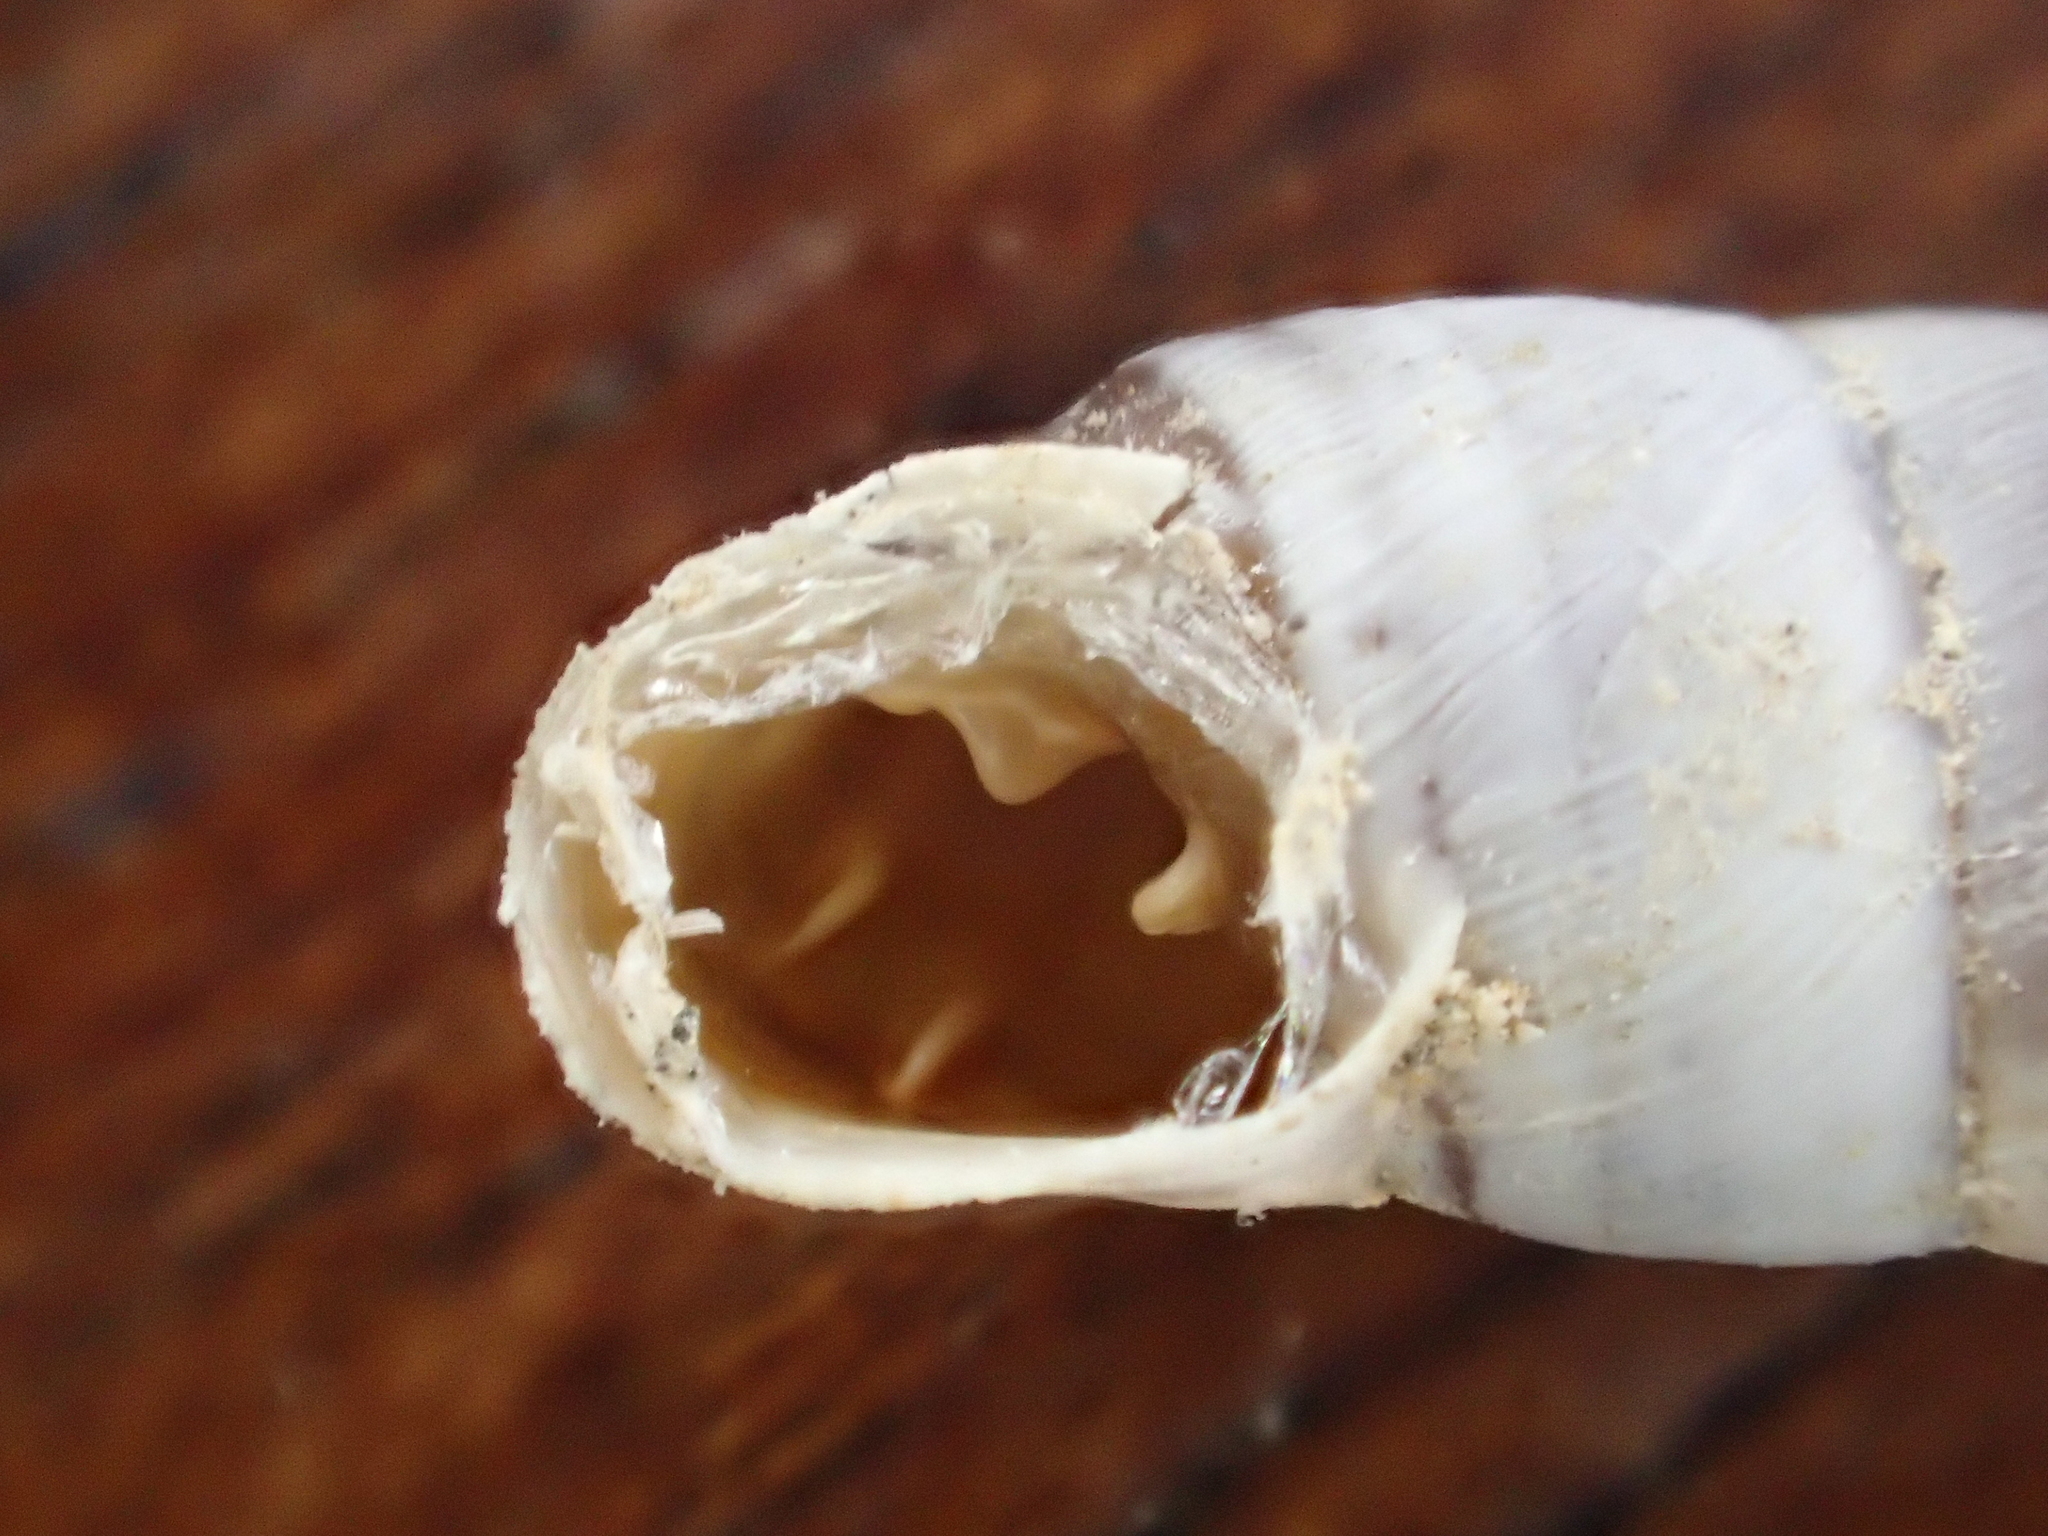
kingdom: Animalia
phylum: Mollusca
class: Gastropoda
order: Stylommatophora
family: Chondrinidae
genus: Solatopupa
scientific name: Solatopupa similis
